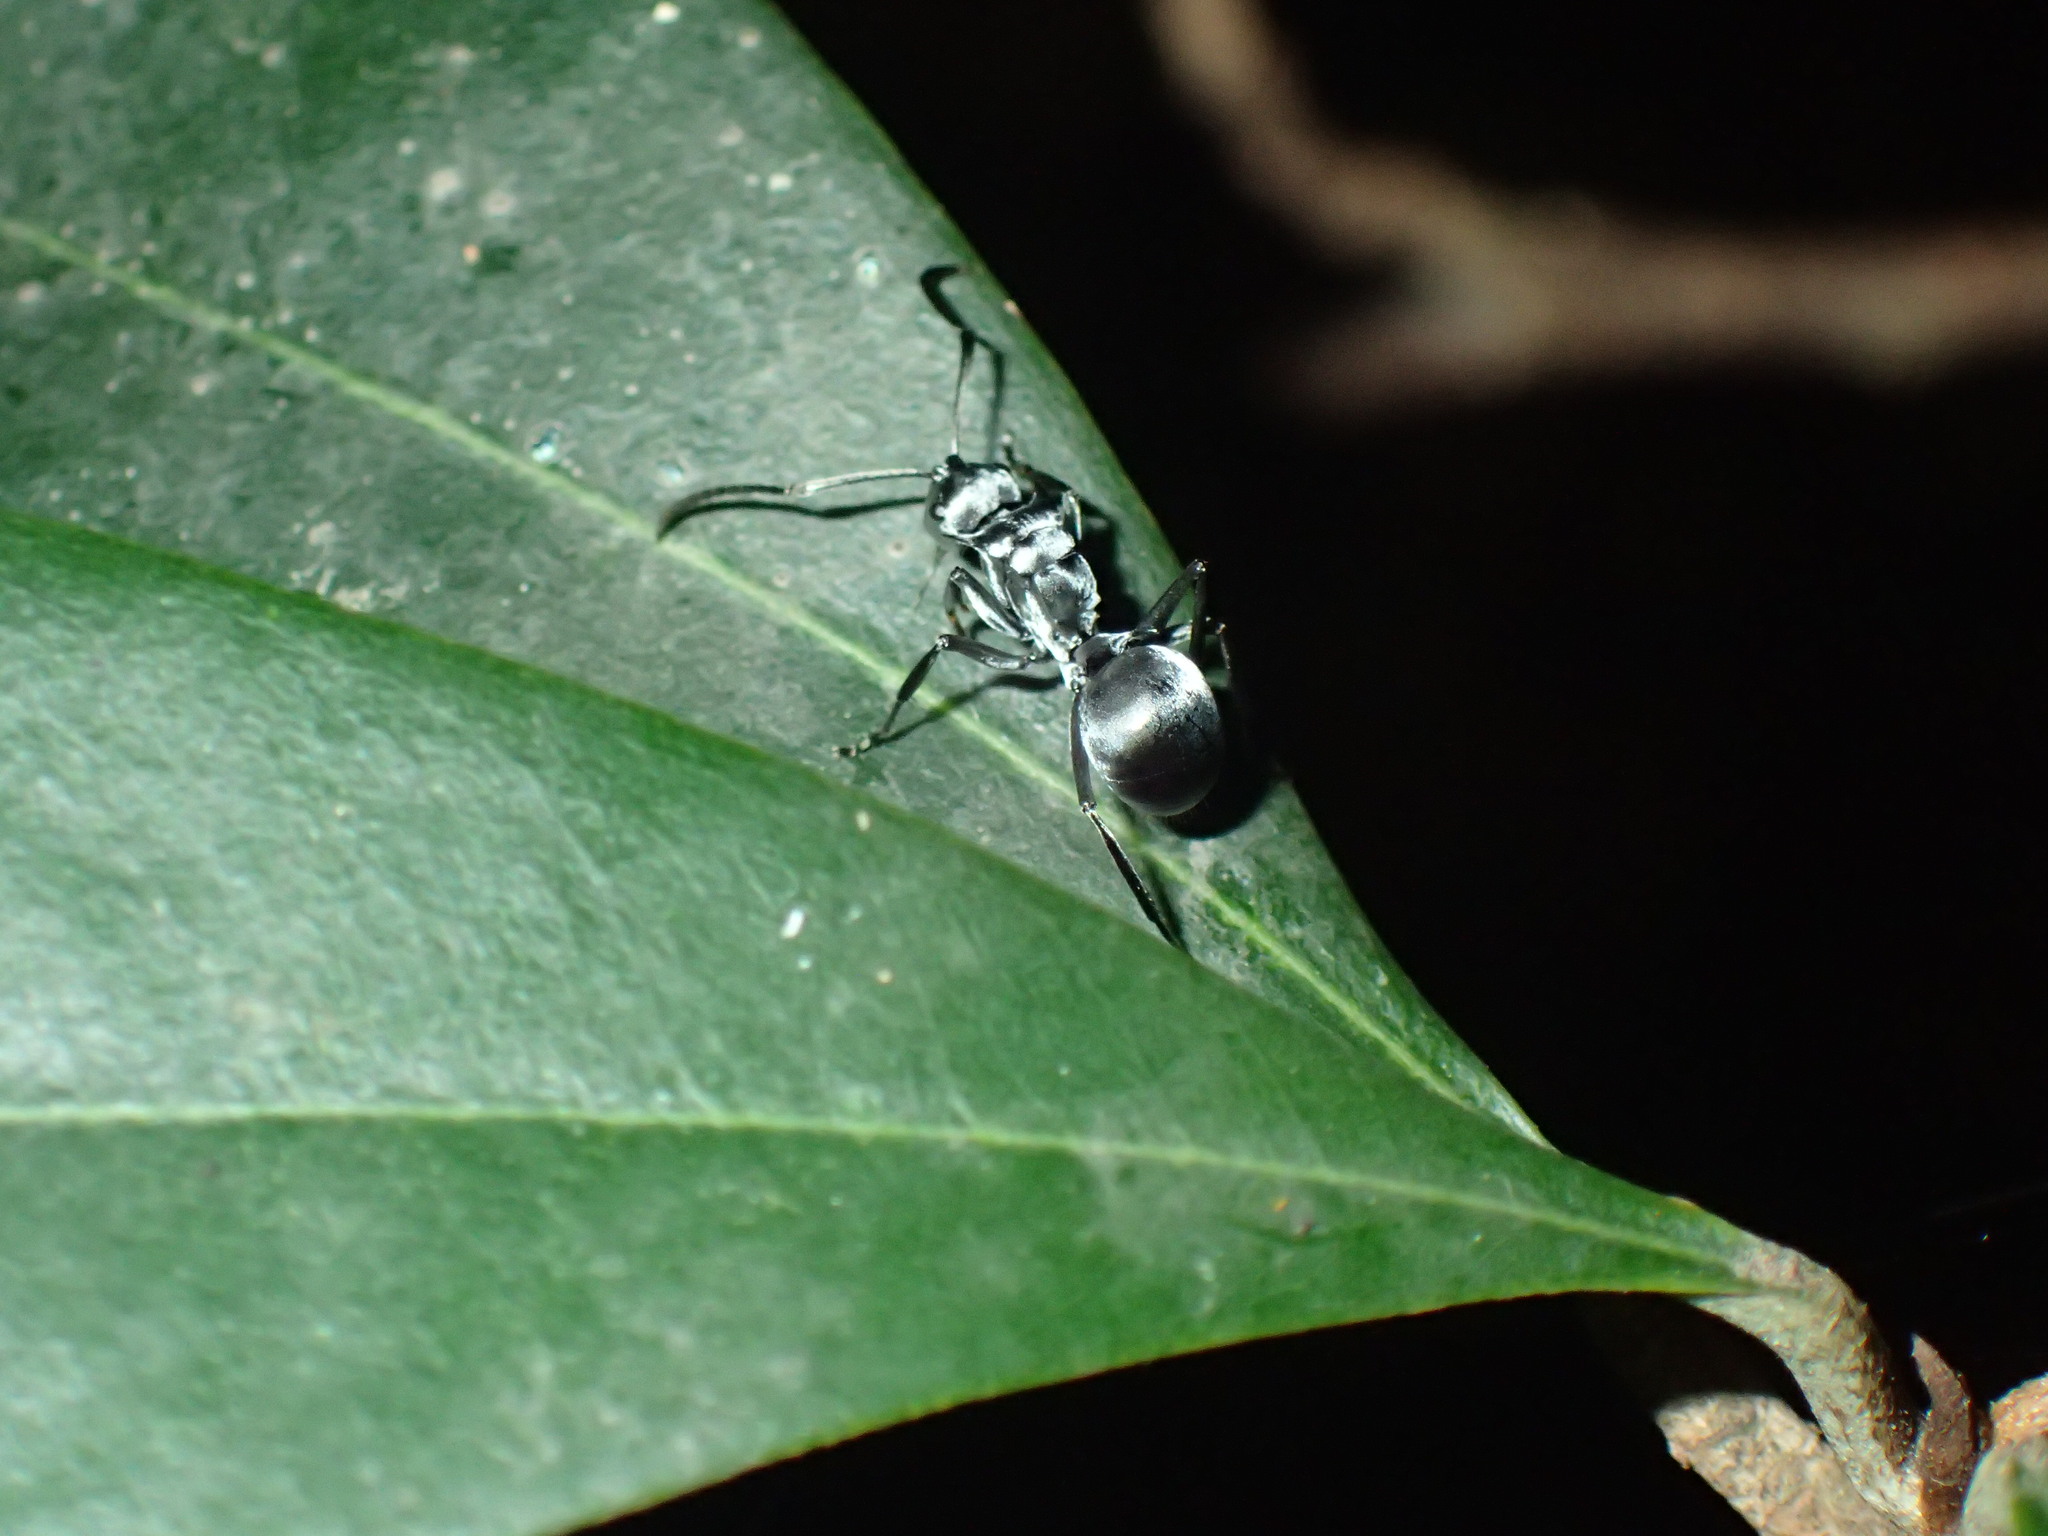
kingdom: Animalia
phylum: Arthropoda
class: Insecta
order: Hymenoptera
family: Formicidae
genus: Polyrhachis
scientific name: Polyrhachis schlueteri
